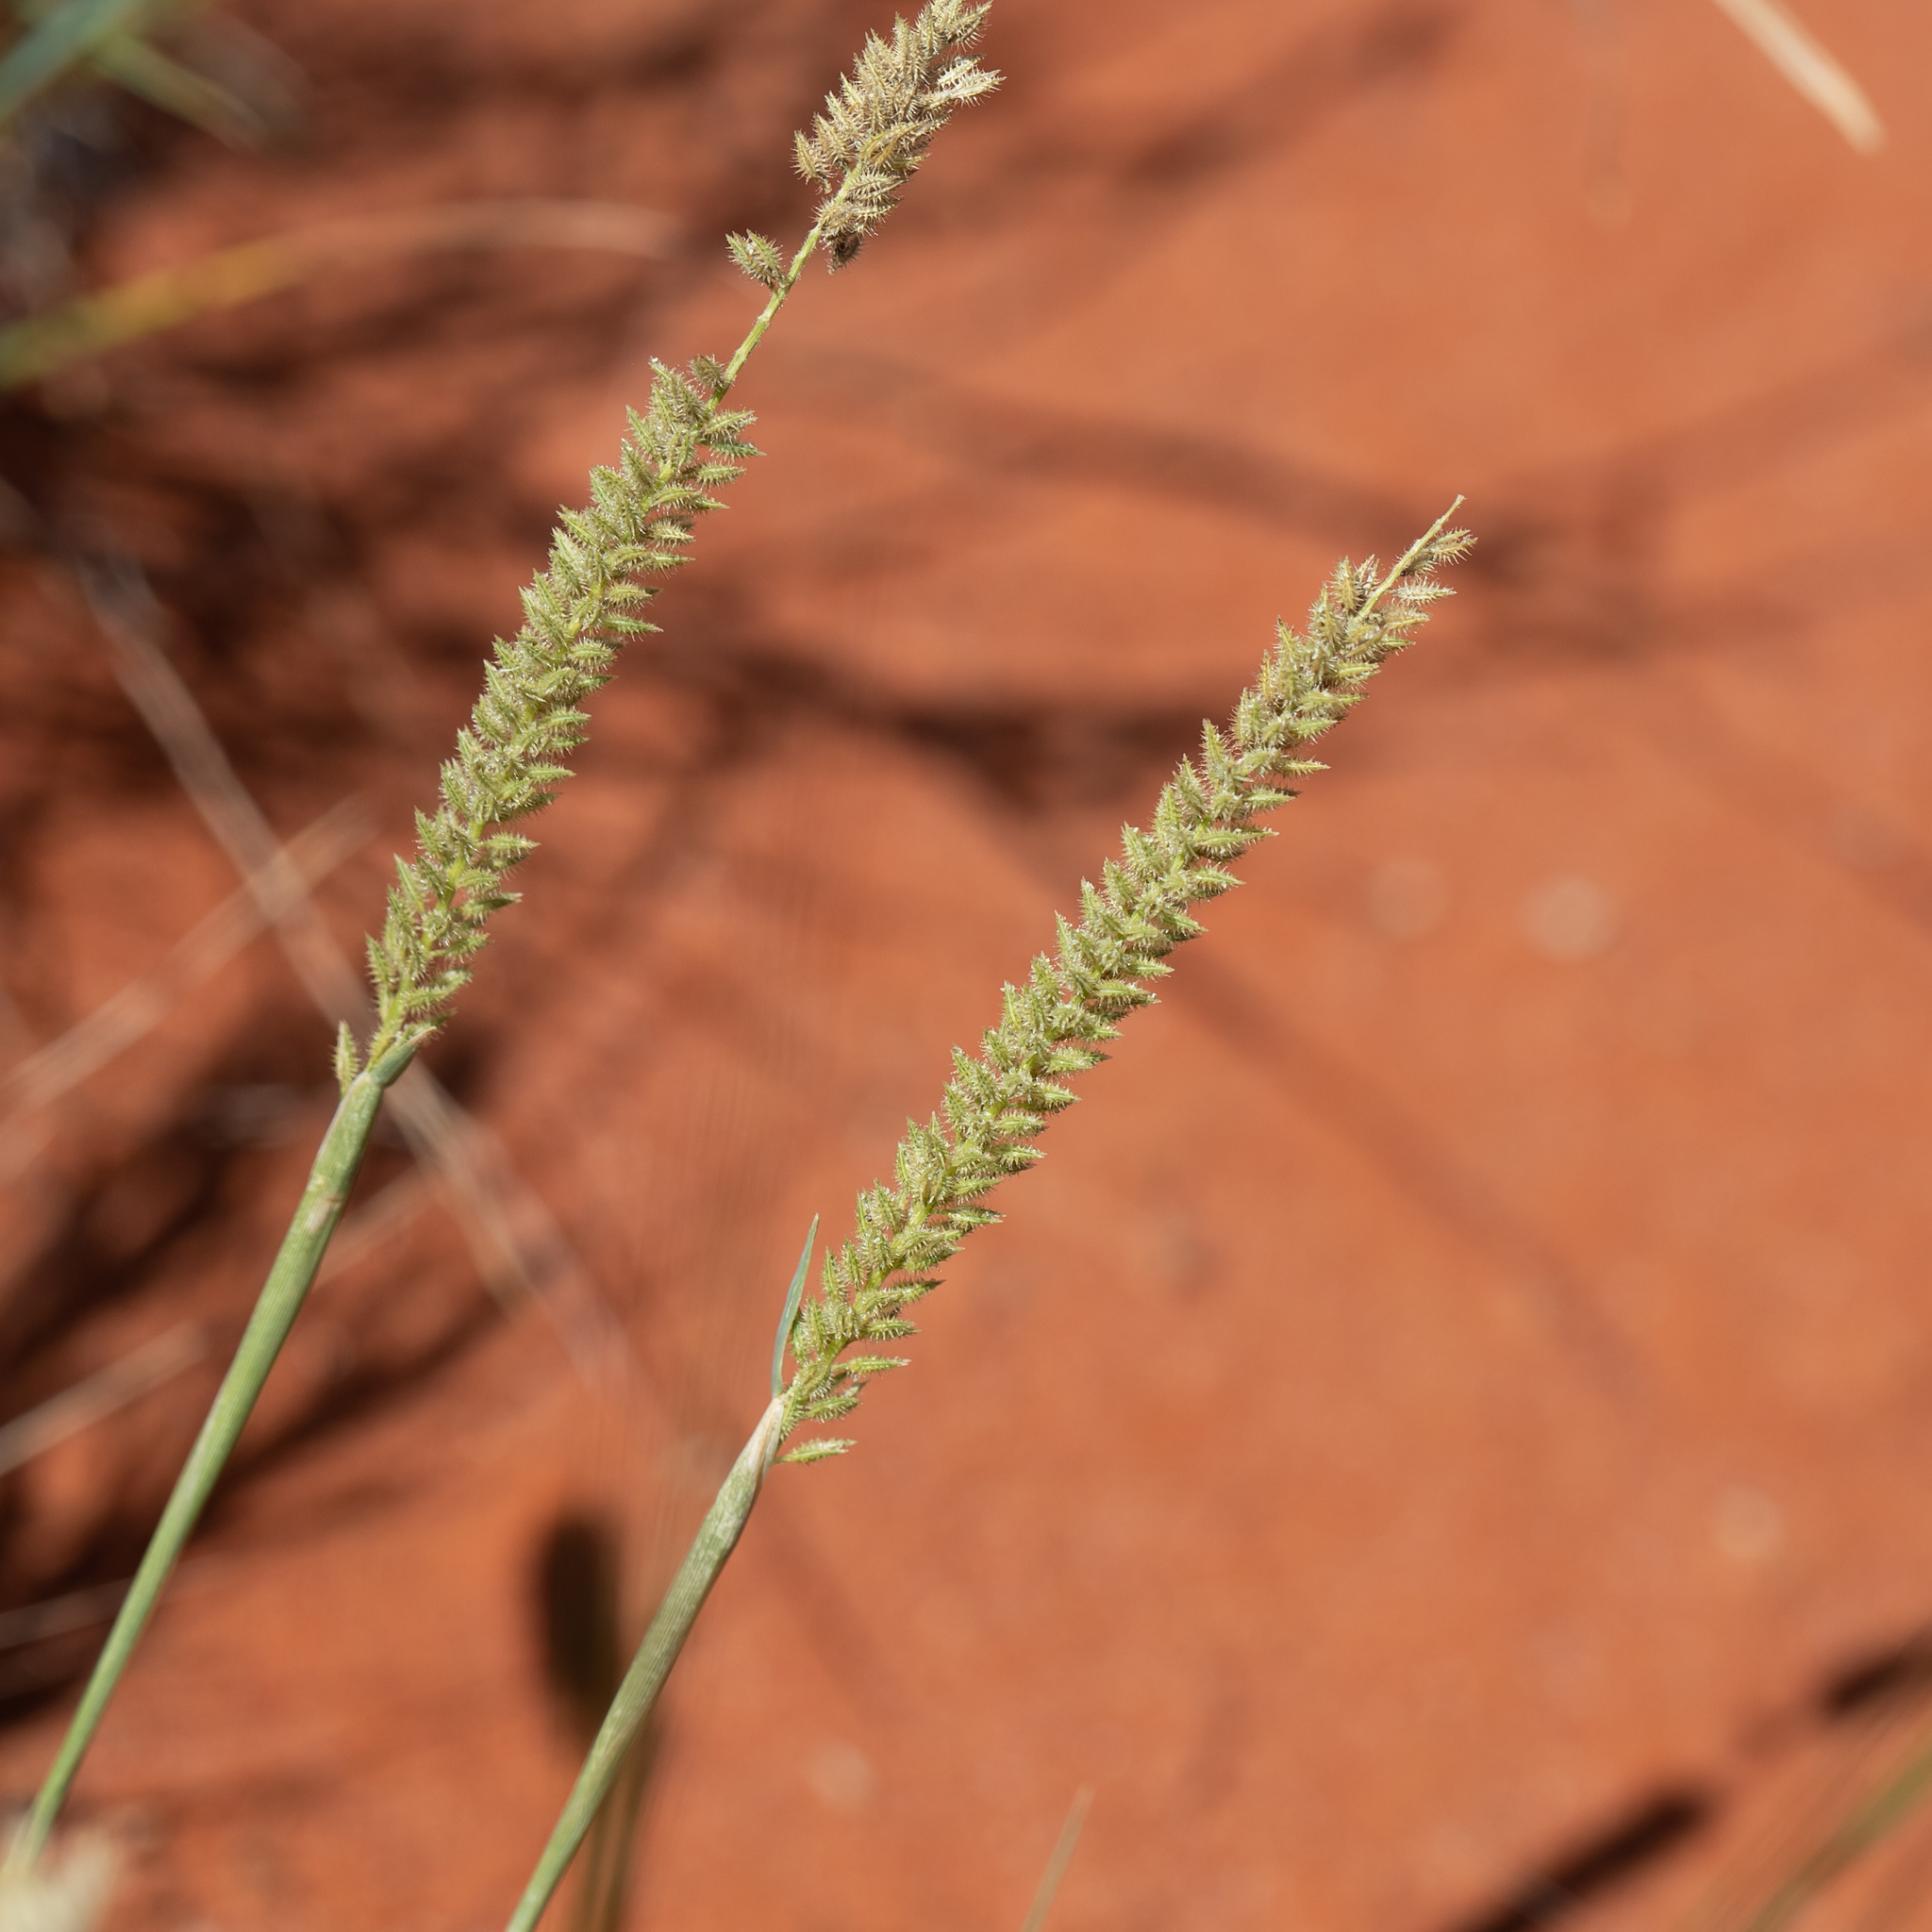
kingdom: Plantae
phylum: Tracheophyta
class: Liliopsida
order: Poales
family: Poaceae
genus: Tragus
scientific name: Tragus australianus
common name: Australian bur-grass
